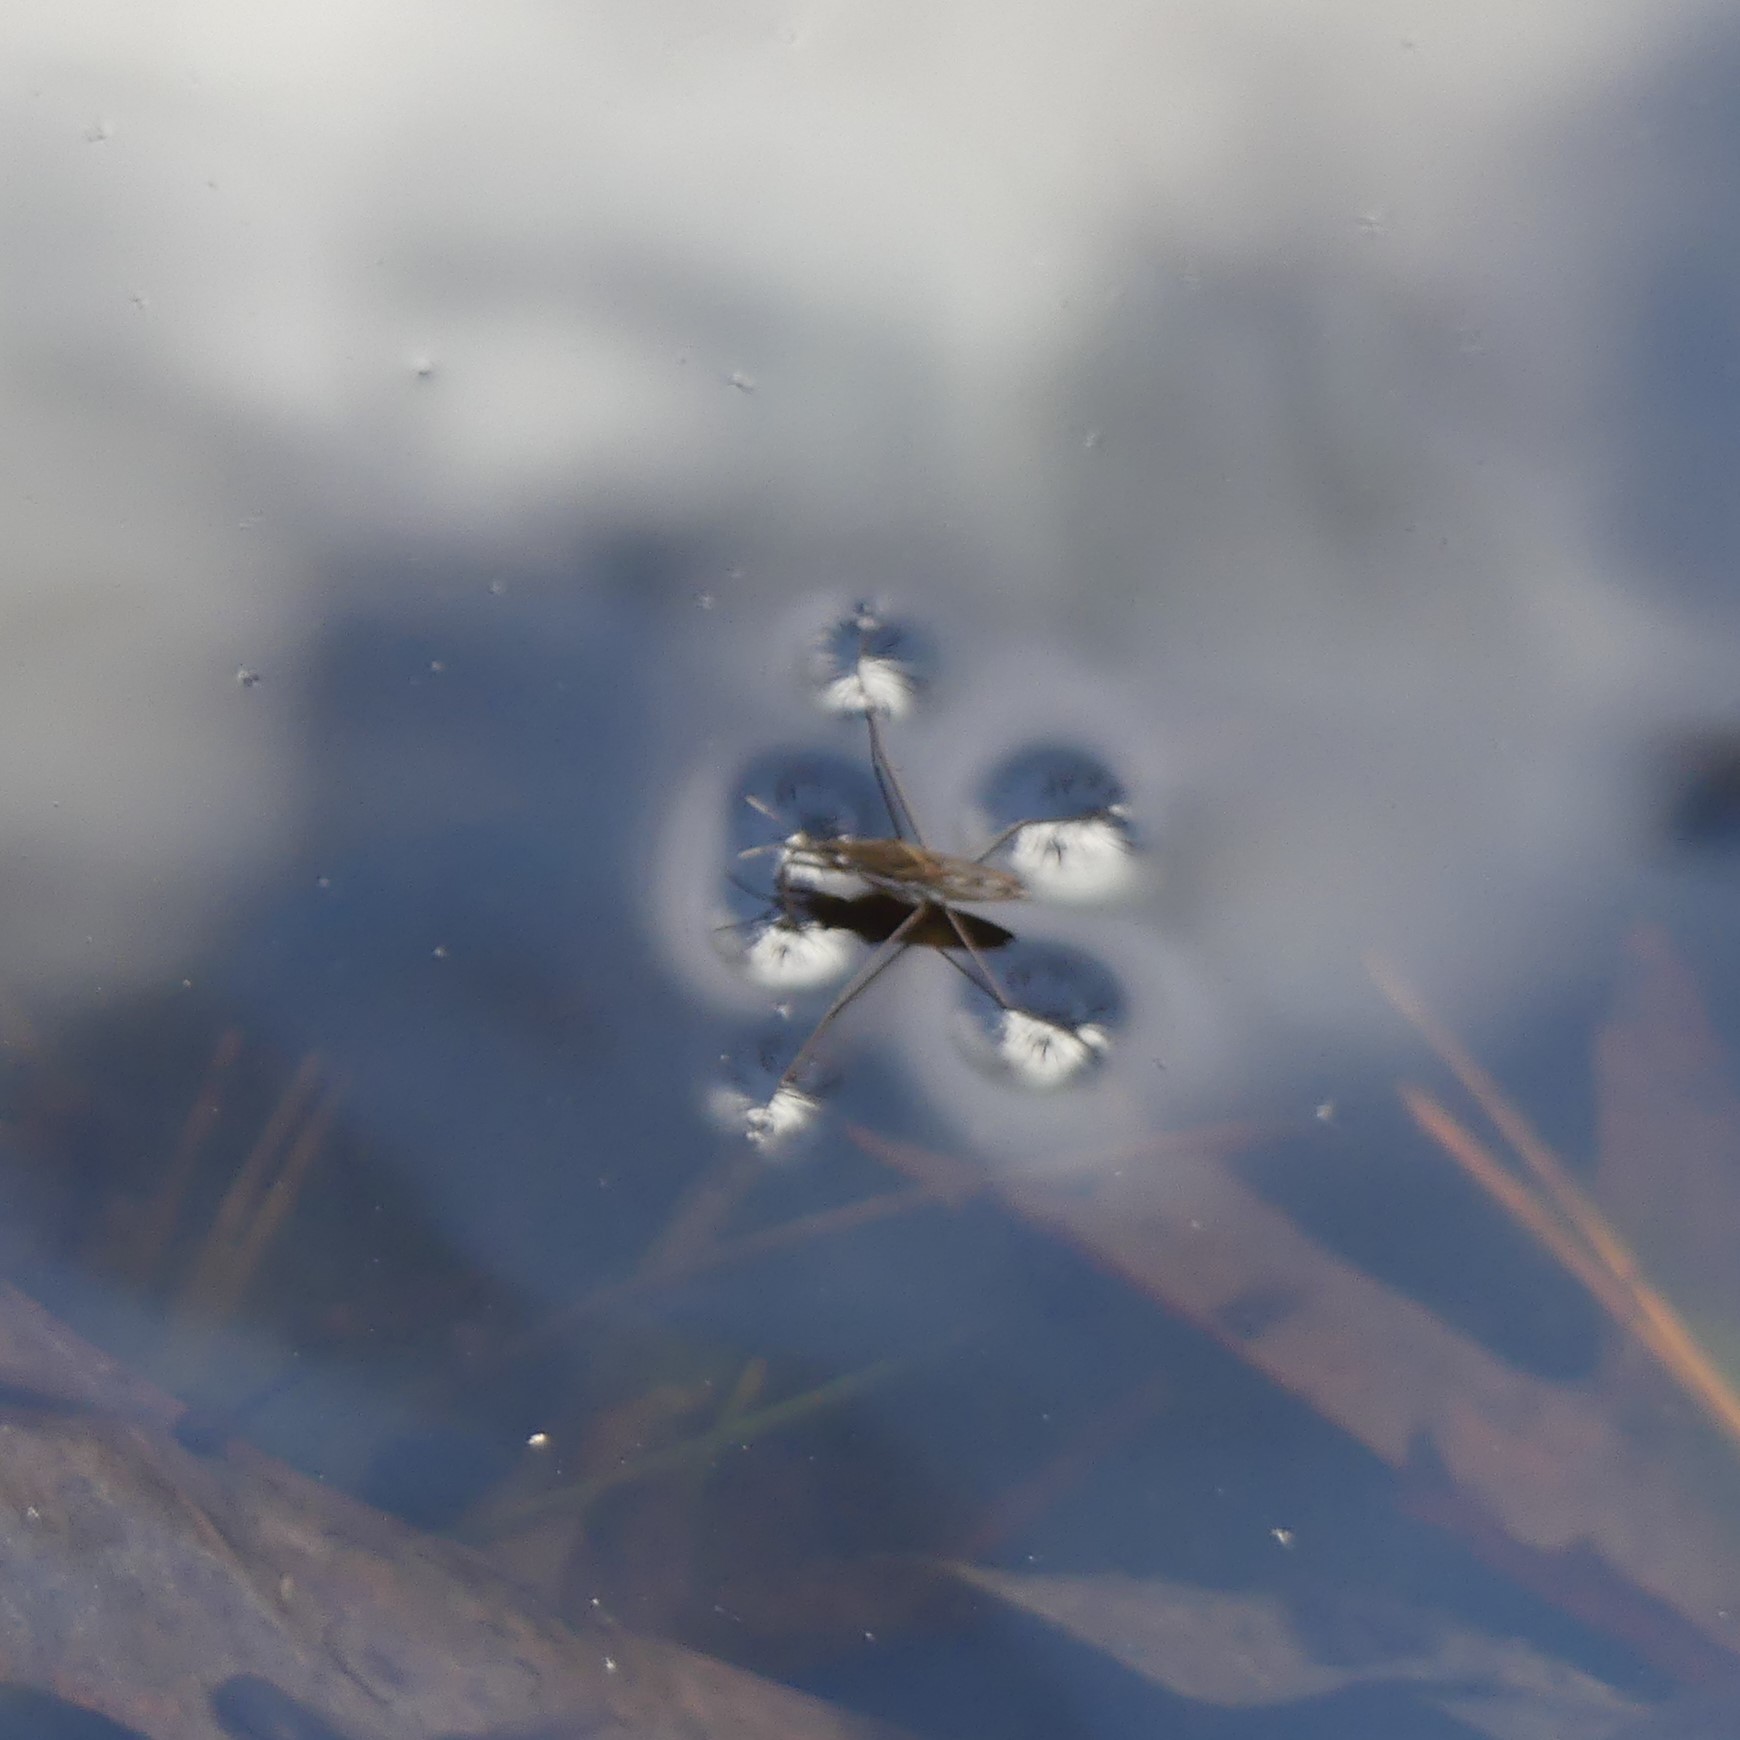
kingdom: Animalia
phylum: Arthropoda
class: Insecta
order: Hemiptera
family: Gerridae
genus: Gerris
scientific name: Gerris
